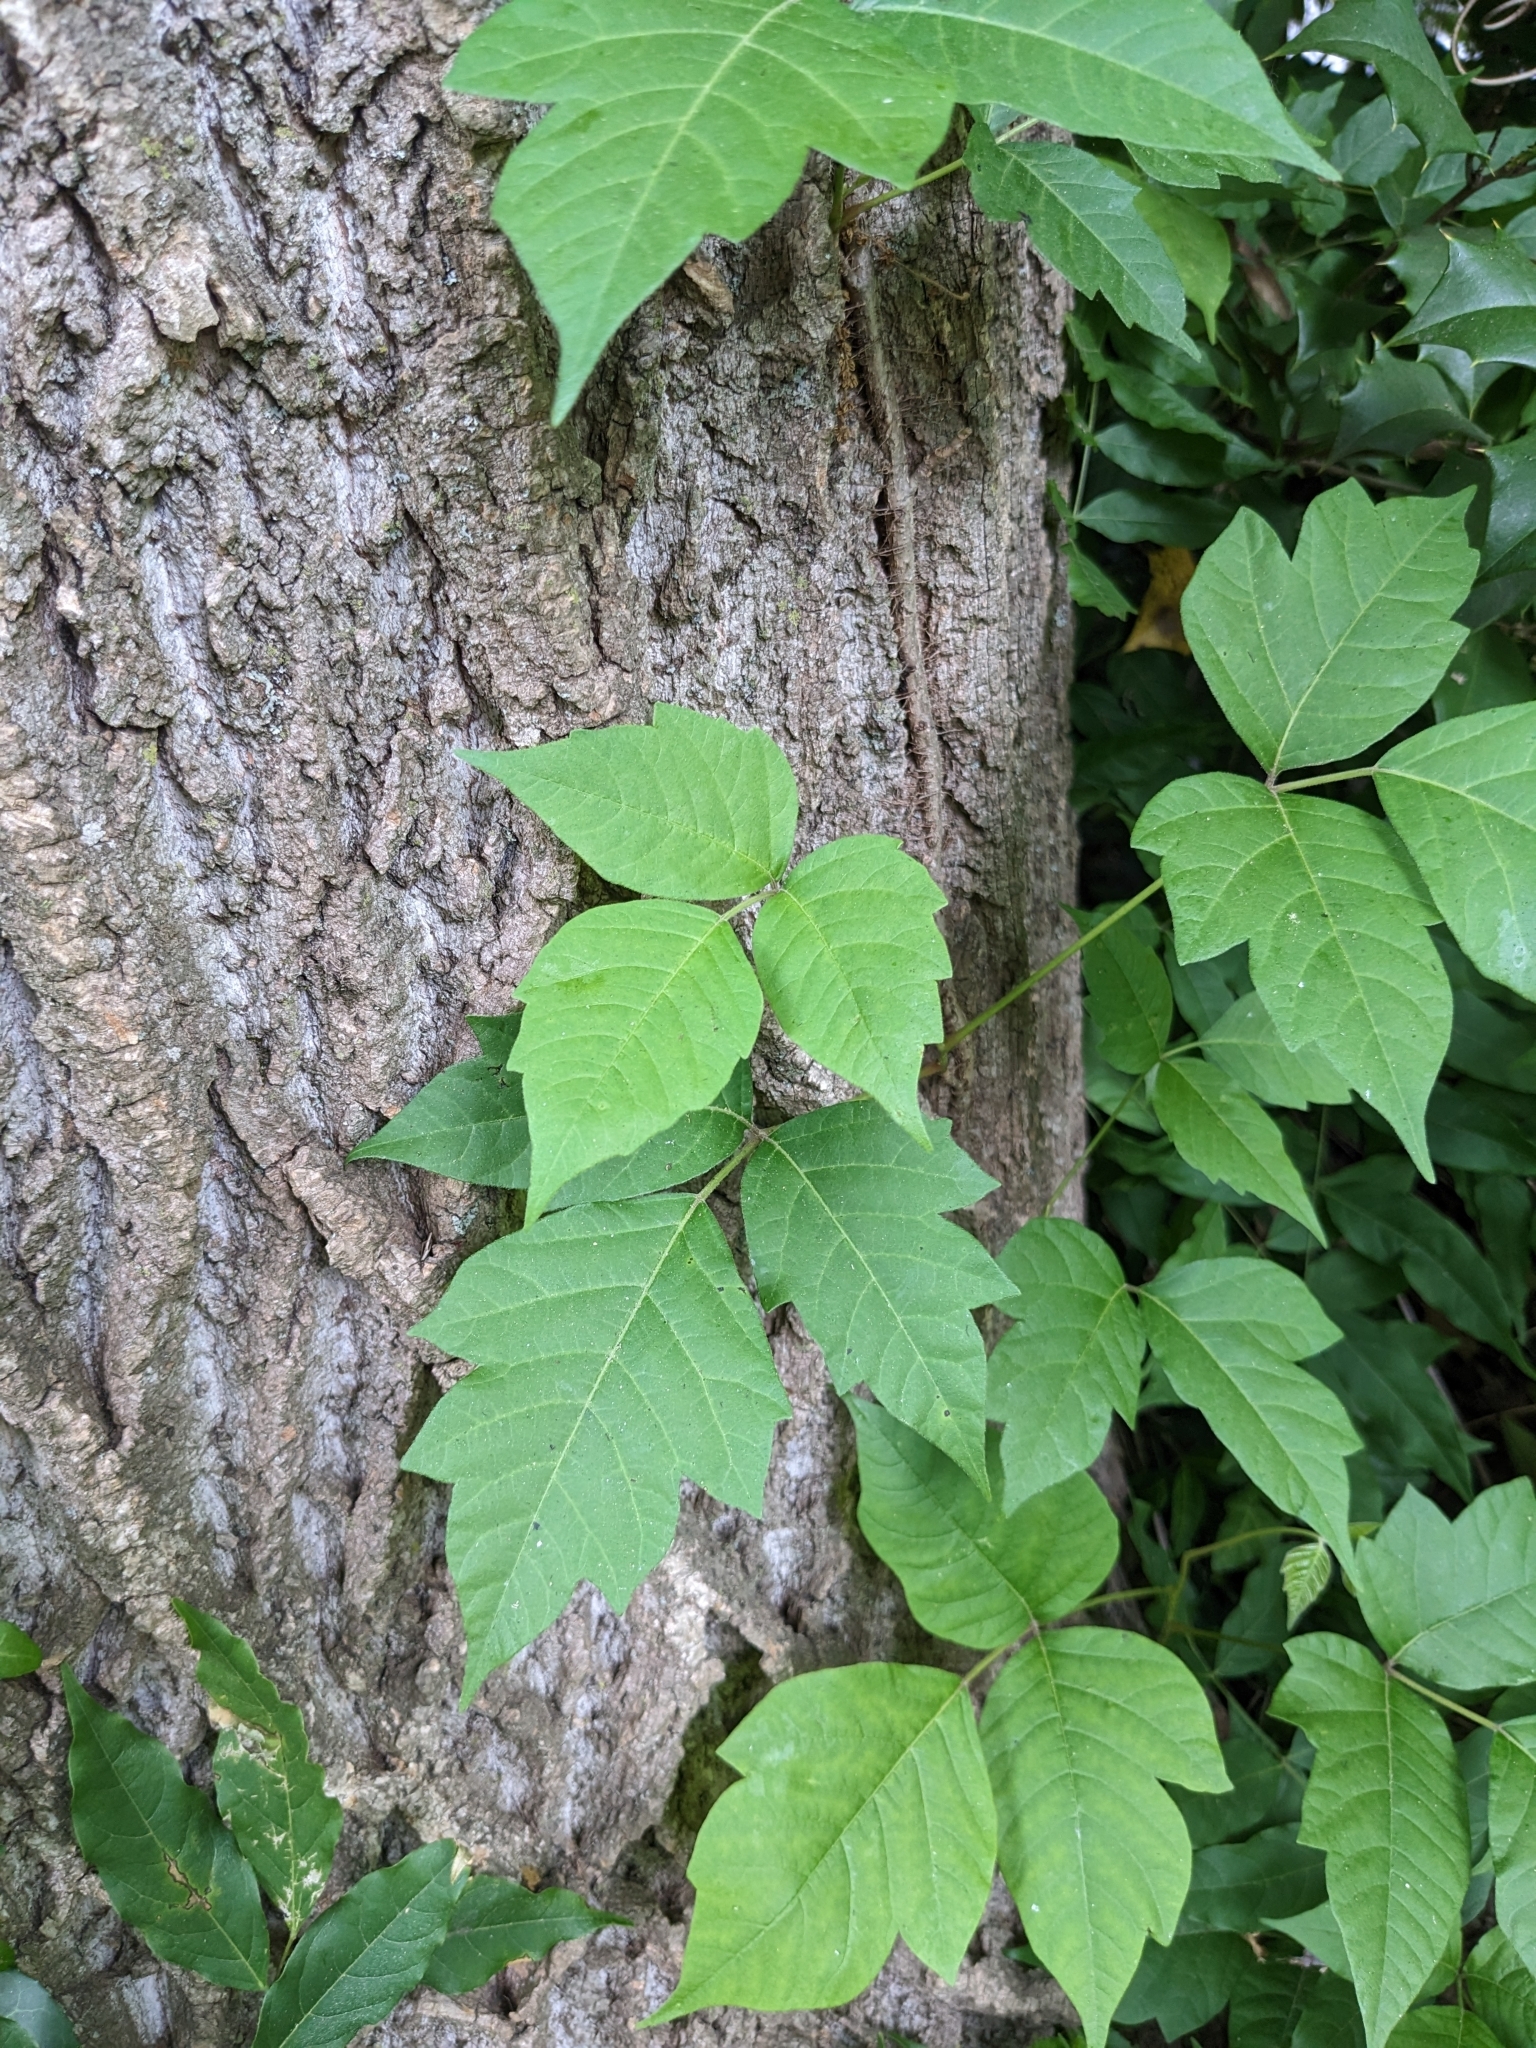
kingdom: Plantae
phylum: Tracheophyta
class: Magnoliopsida
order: Sapindales
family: Anacardiaceae
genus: Toxicodendron
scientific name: Toxicodendron radicans
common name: Poison ivy
